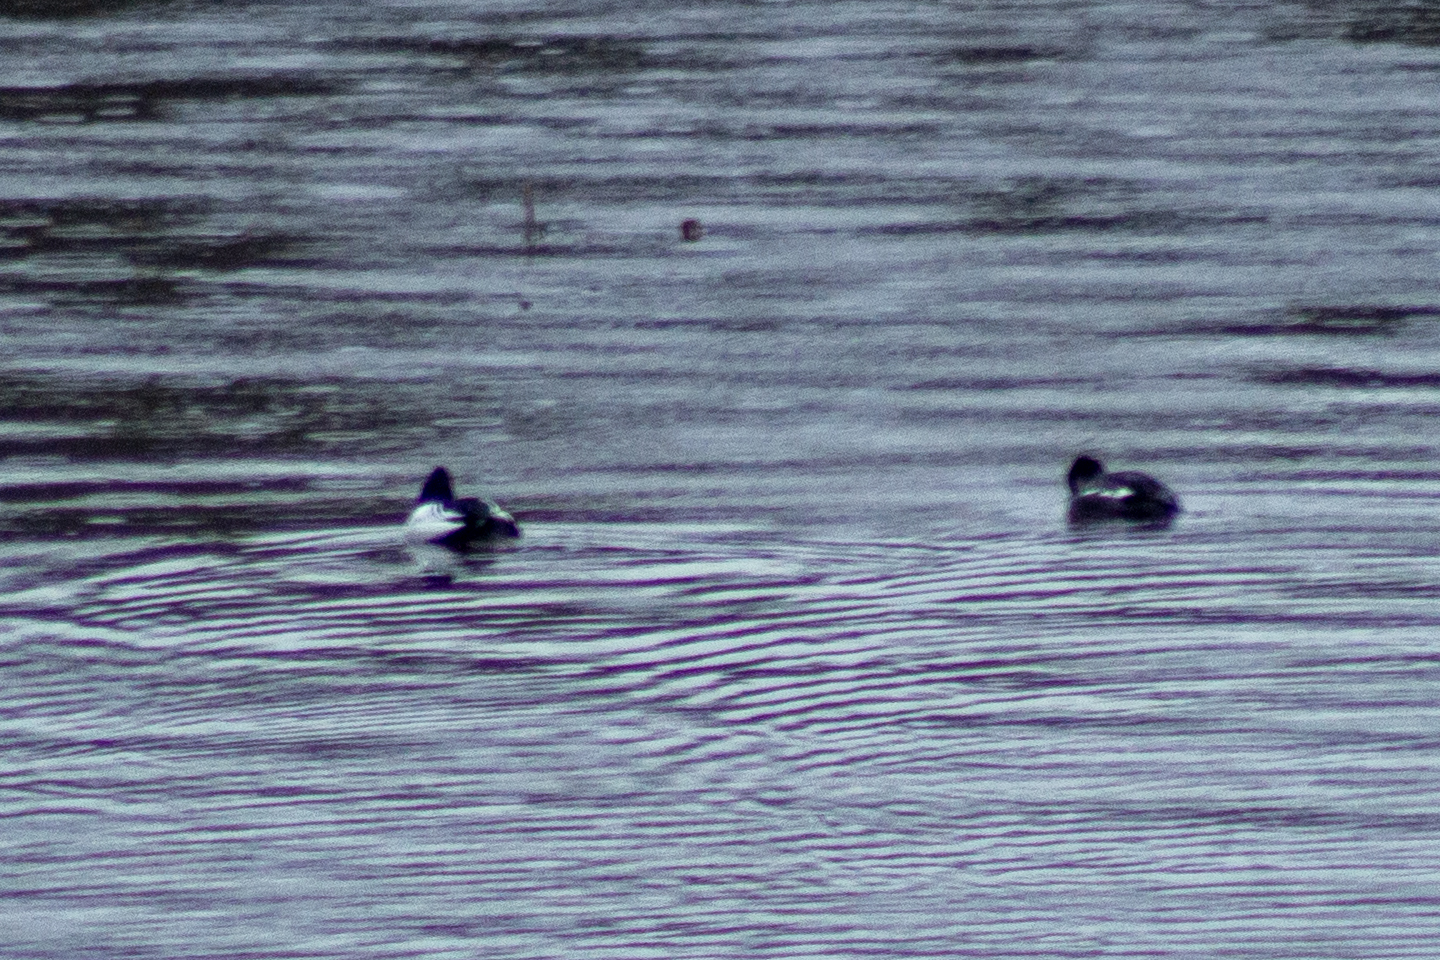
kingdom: Animalia
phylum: Chordata
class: Aves
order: Anseriformes
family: Anatidae
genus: Bucephala
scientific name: Bucephala clangula
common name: Common goldeneye
